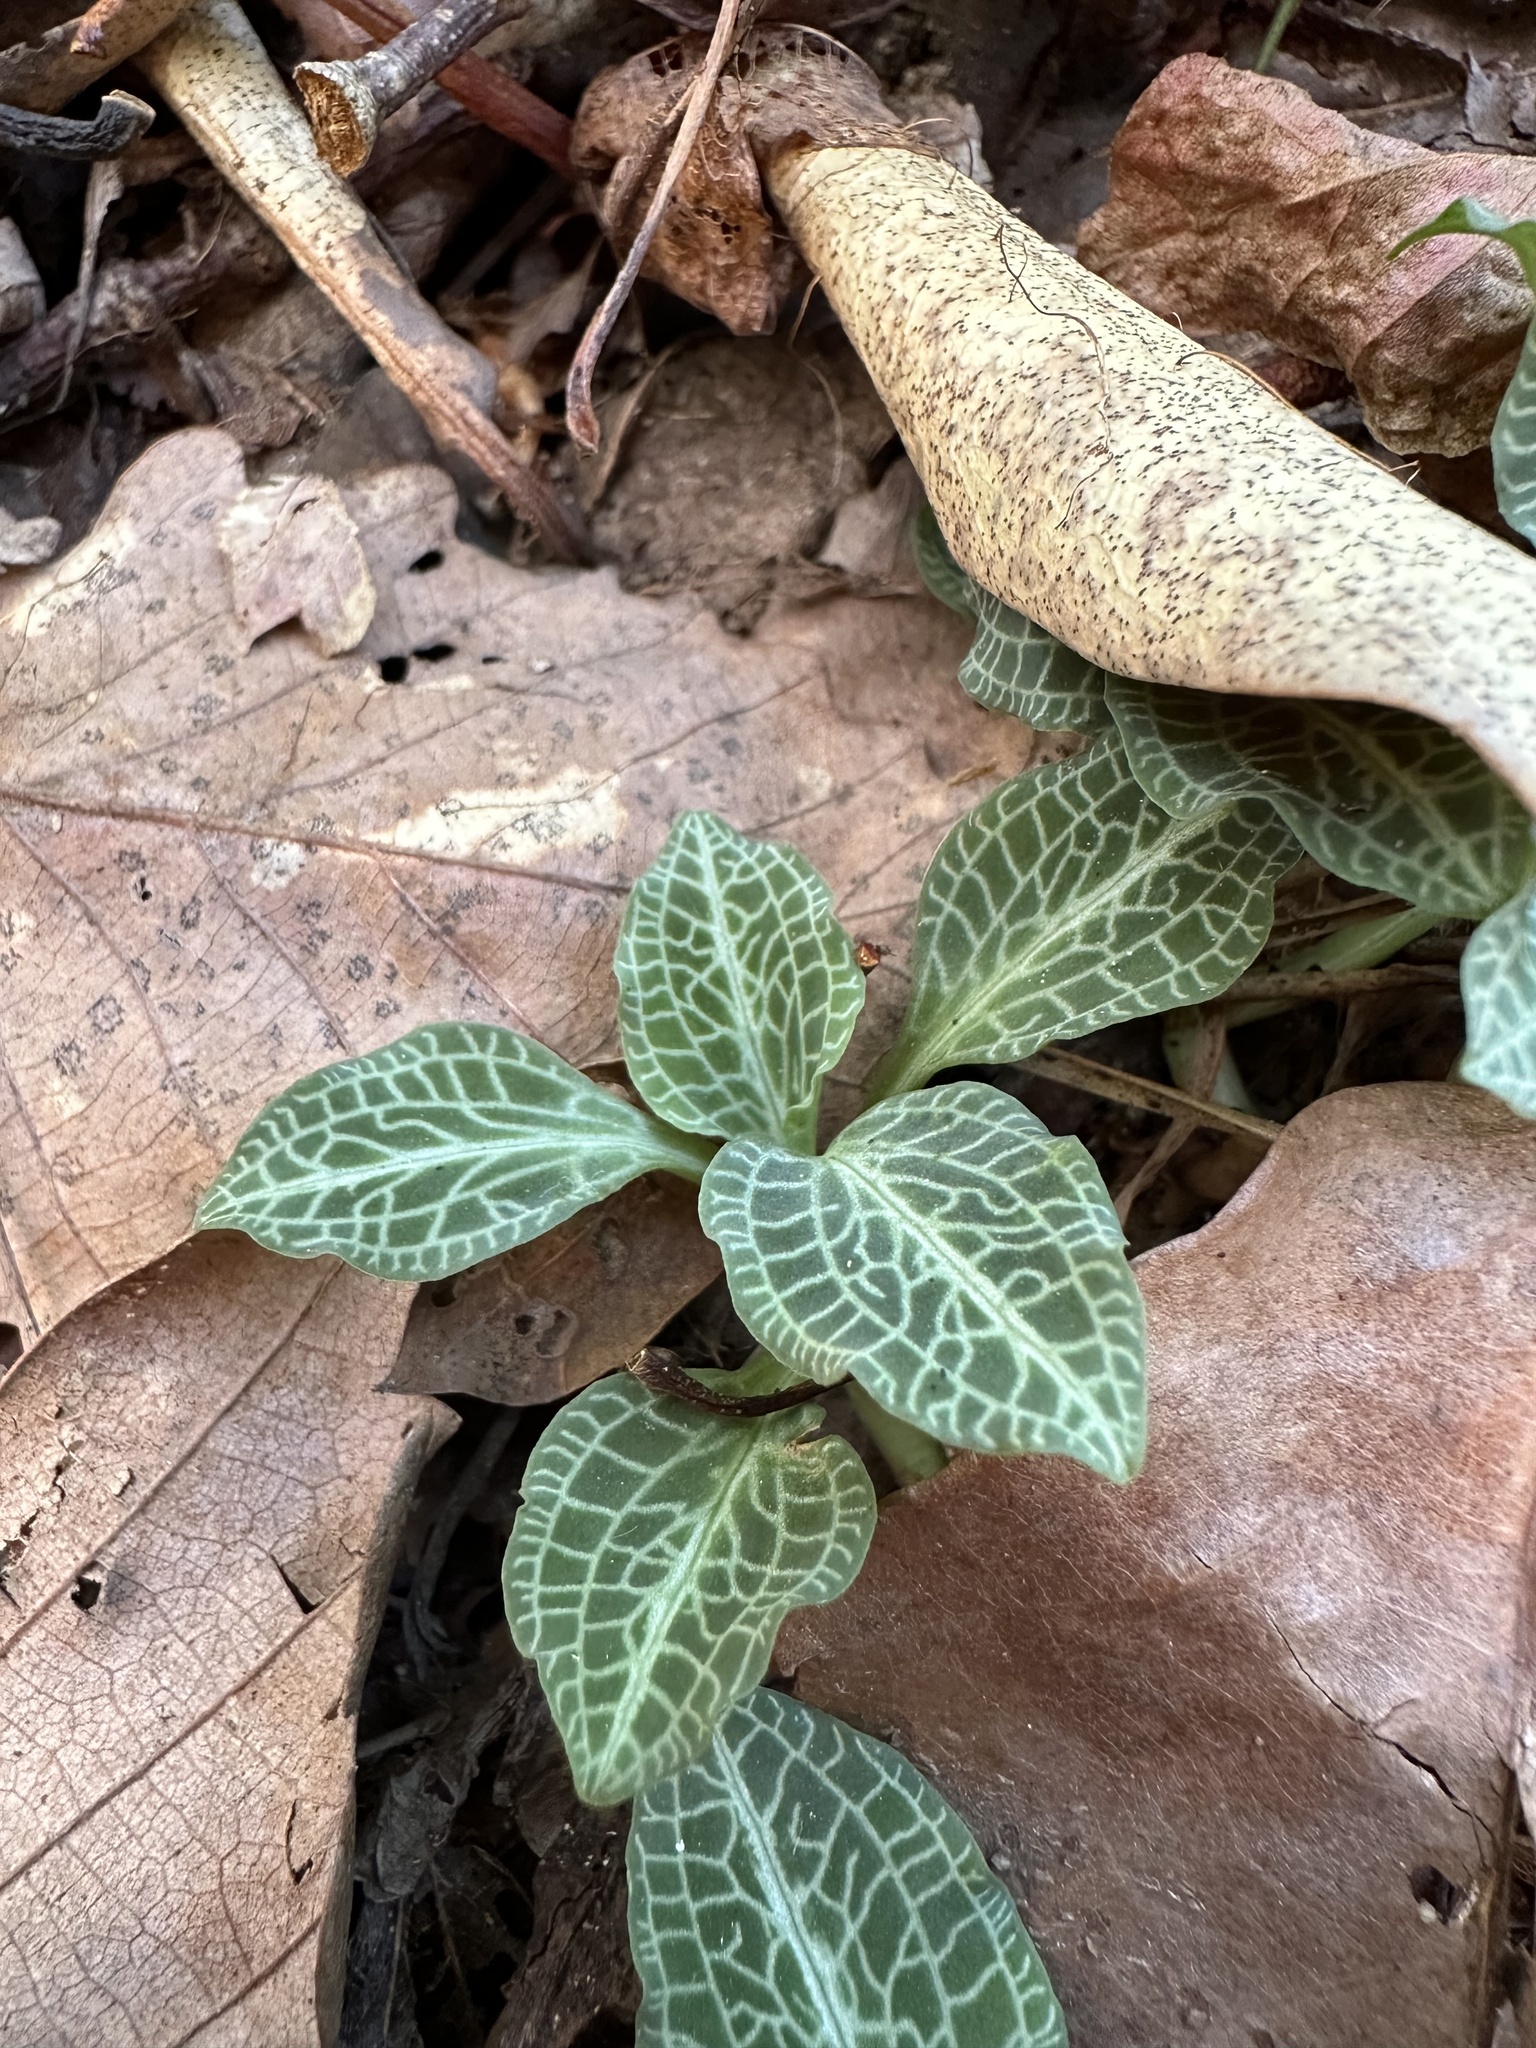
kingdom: Plantae
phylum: Tracheophyta
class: Liliopsida
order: Asparagales
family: Orchidaceae
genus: Goodyera
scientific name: Goodyera pubescens
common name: Downy rattlesnake-plantain
